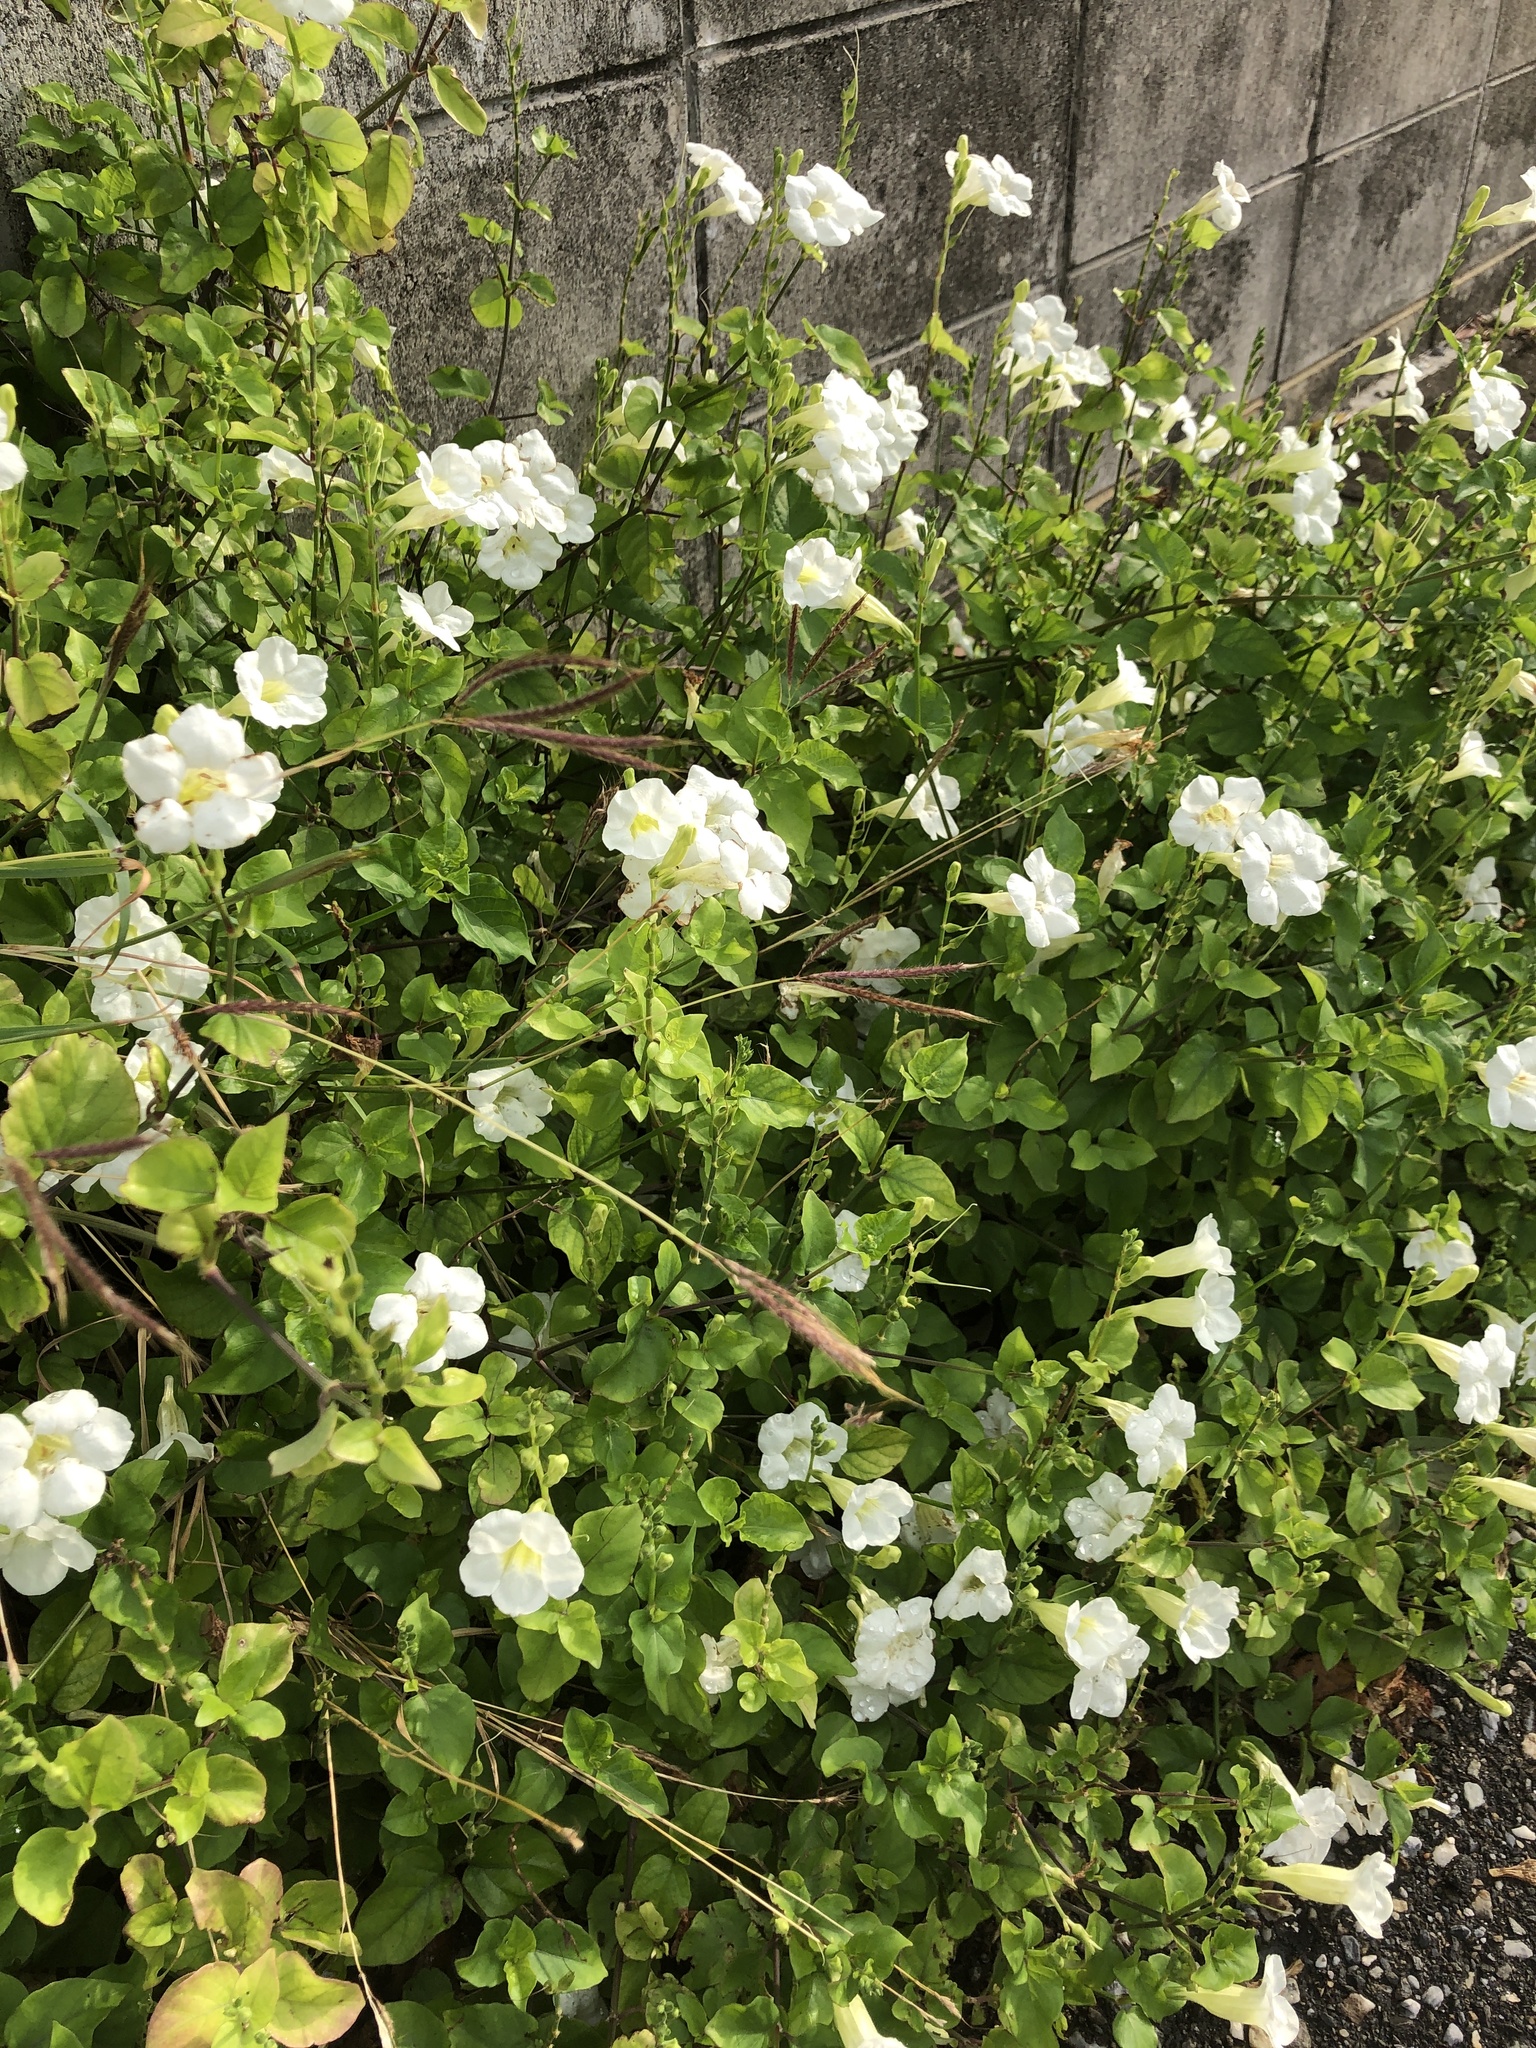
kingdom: Plantae
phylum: Tracheophyta
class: Magnoliopsida
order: Lamiales
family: Acanthaceae
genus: Asystasia
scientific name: Asystasia gangetica
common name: Chinese violet
